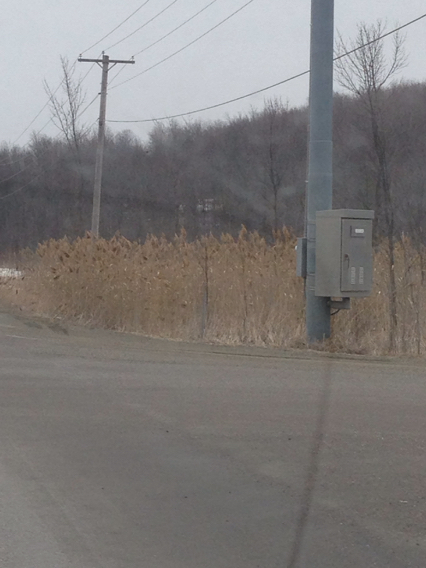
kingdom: Plantae
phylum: Tracheophyta
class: Liliopsida
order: Poales
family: Poaceae
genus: Phragmites
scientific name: Phragmites australis
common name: Common reed
